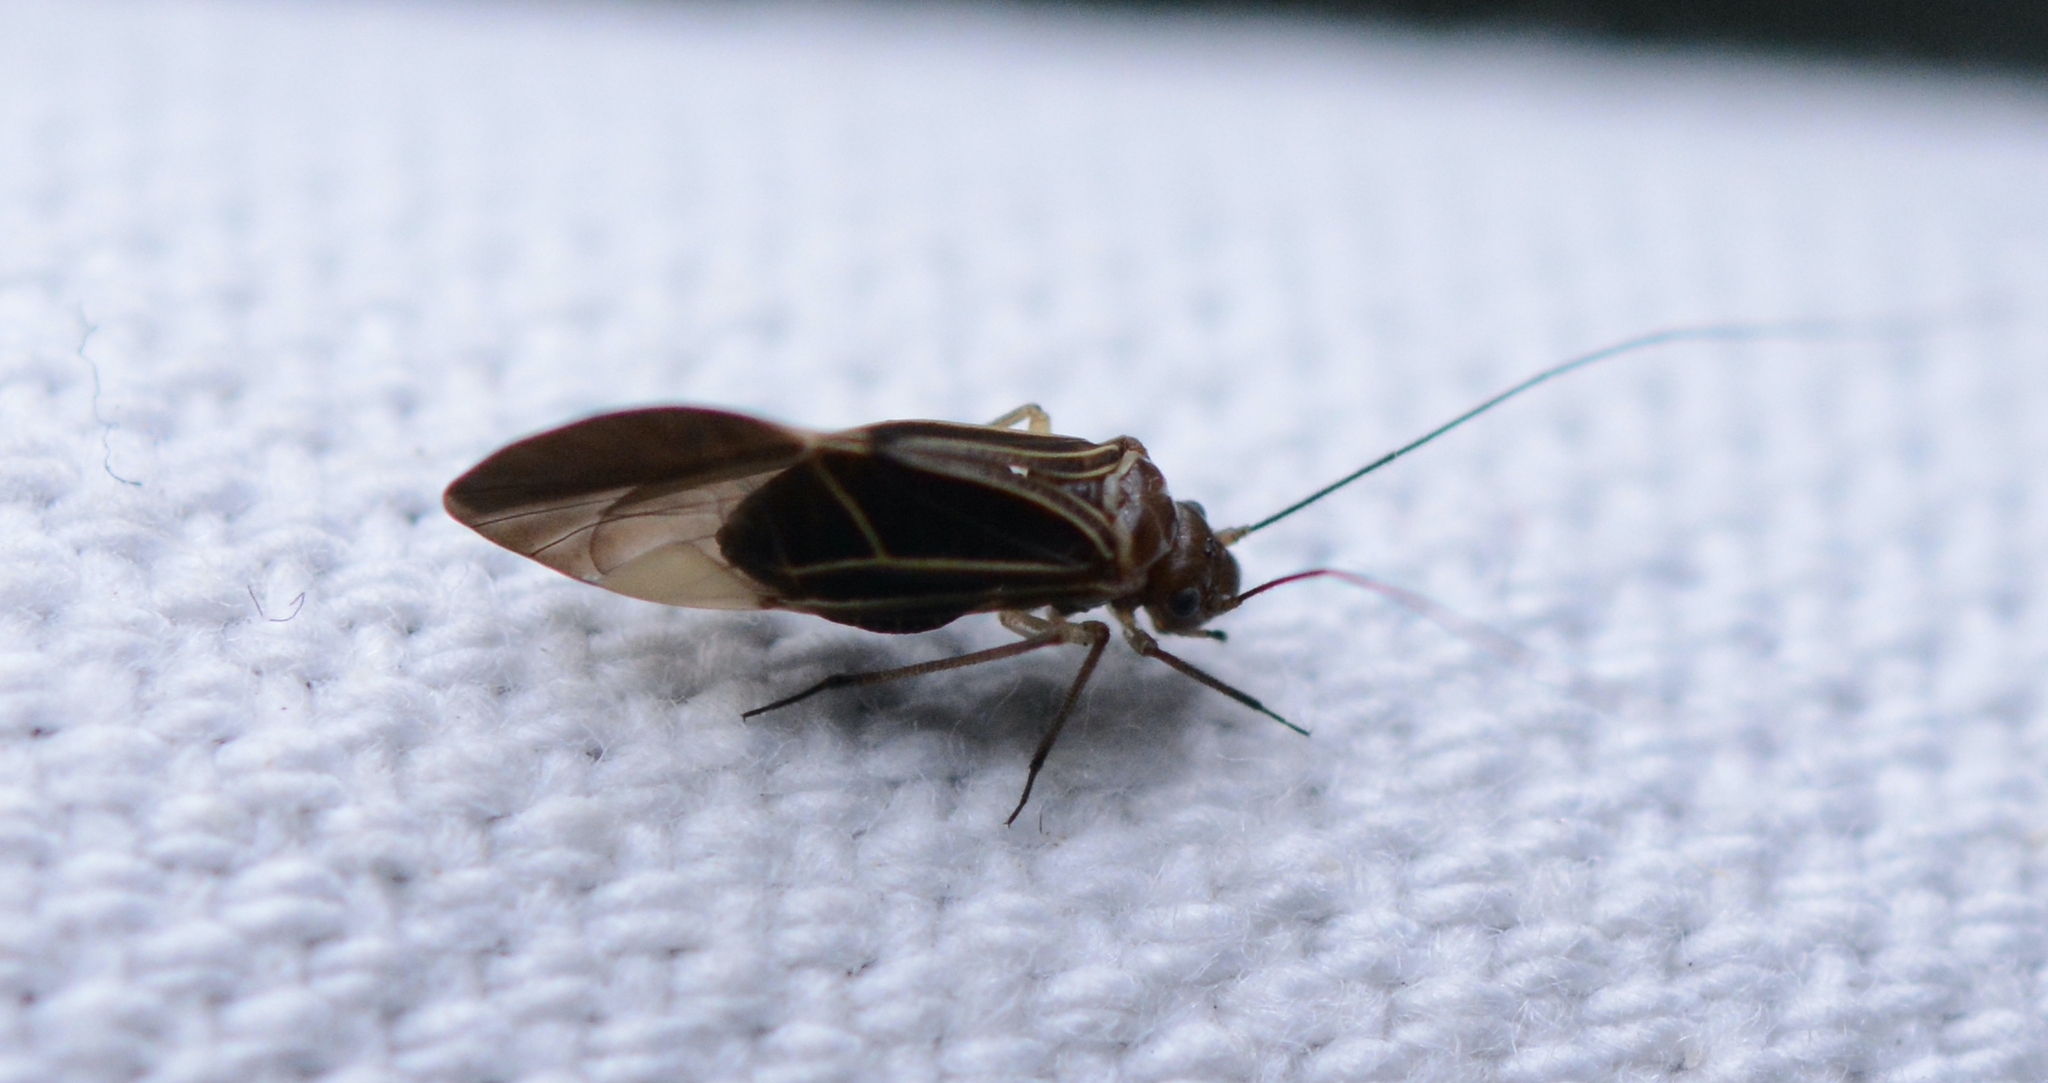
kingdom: Animalia
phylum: Arthropoda
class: Insecta
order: Psocodea
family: Psocidae
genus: Cerastipsocus
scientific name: Cerastipsocus venosus
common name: Tree cattle
